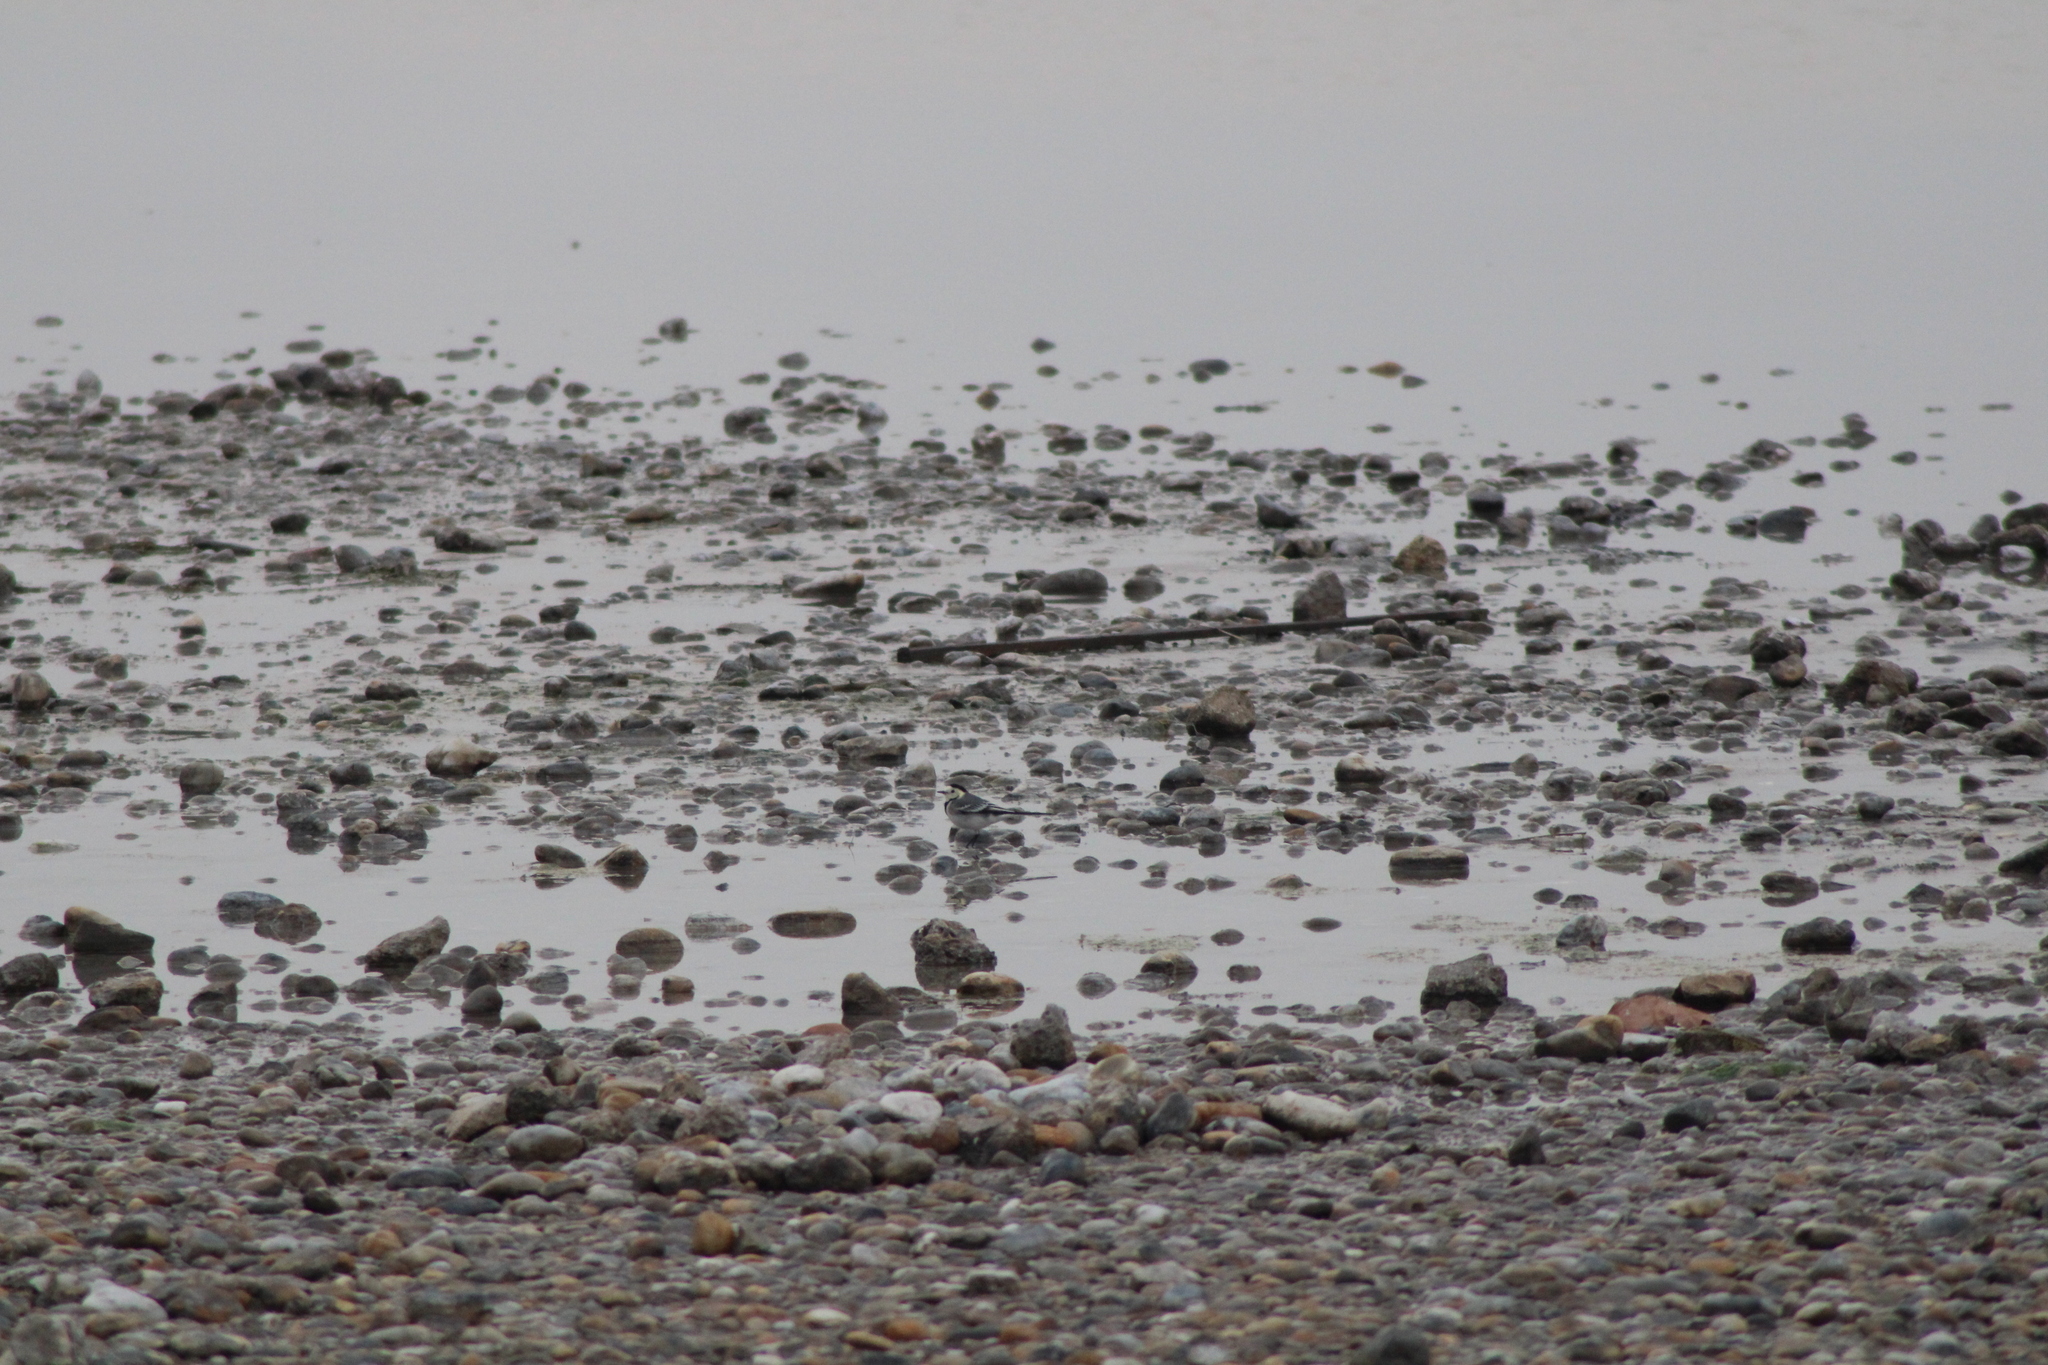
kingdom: Animalia
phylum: Chordata
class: Aves
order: Passeriformes
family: Motacillidae
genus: Motacilla
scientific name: Motacilla alba
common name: White wagtail
